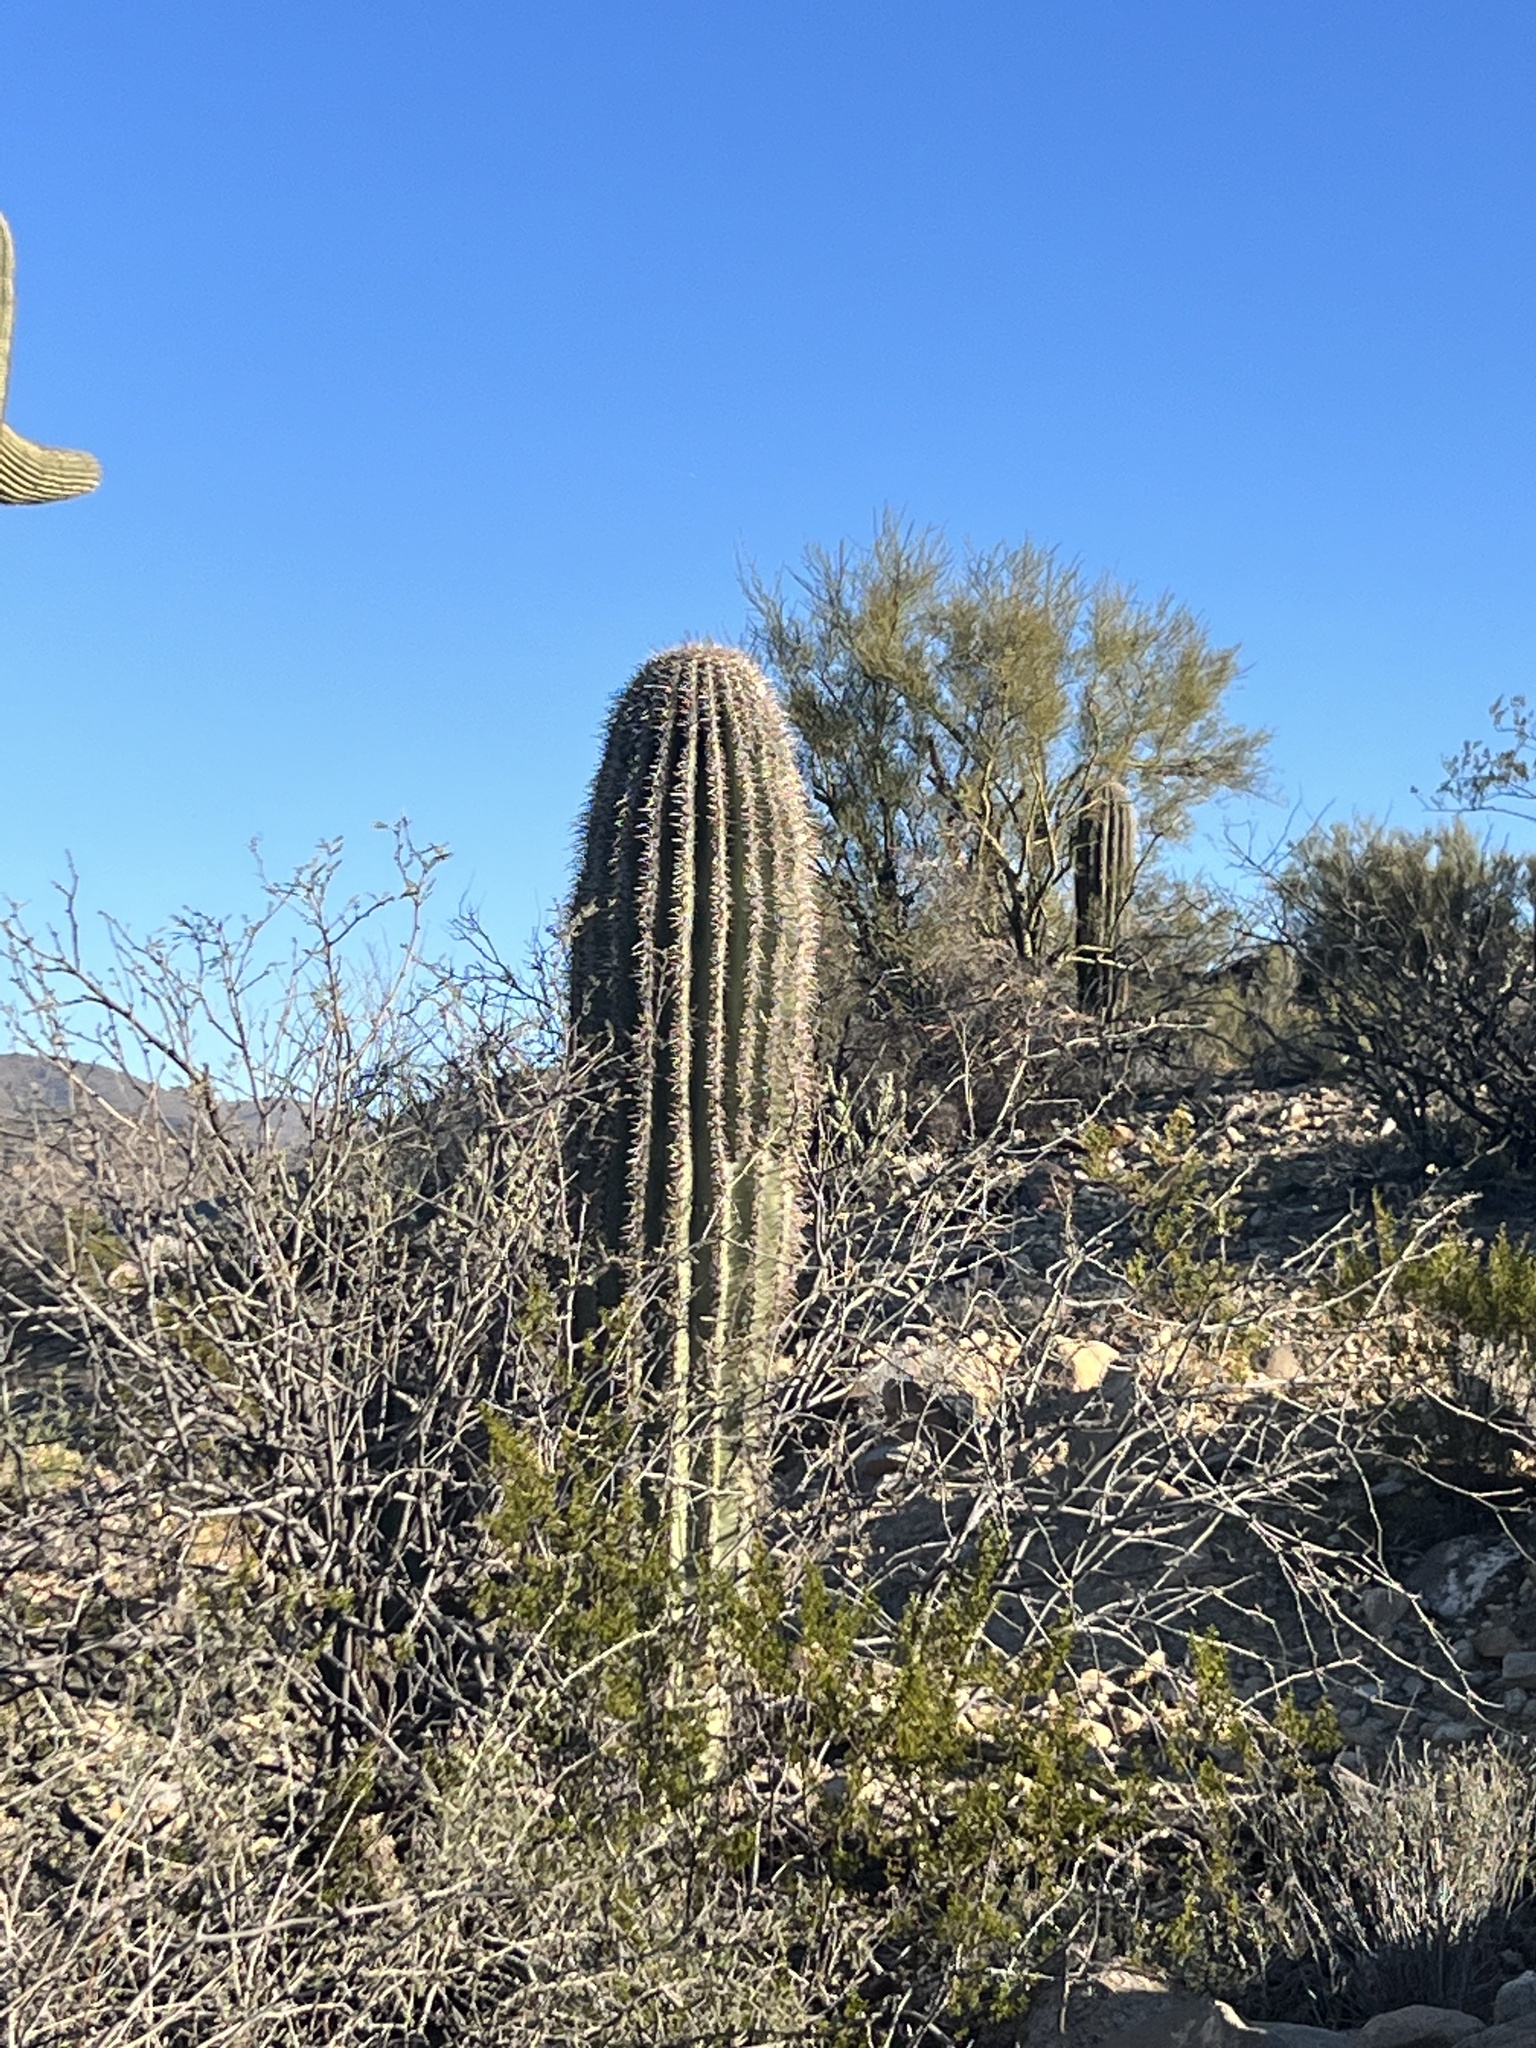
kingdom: Plantae
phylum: Tracheophyta
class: Magnoliopsida
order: Caryophyllales
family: Cactaceae
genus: Carnegiea
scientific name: Carnegiea gigantea
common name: Saguaro
